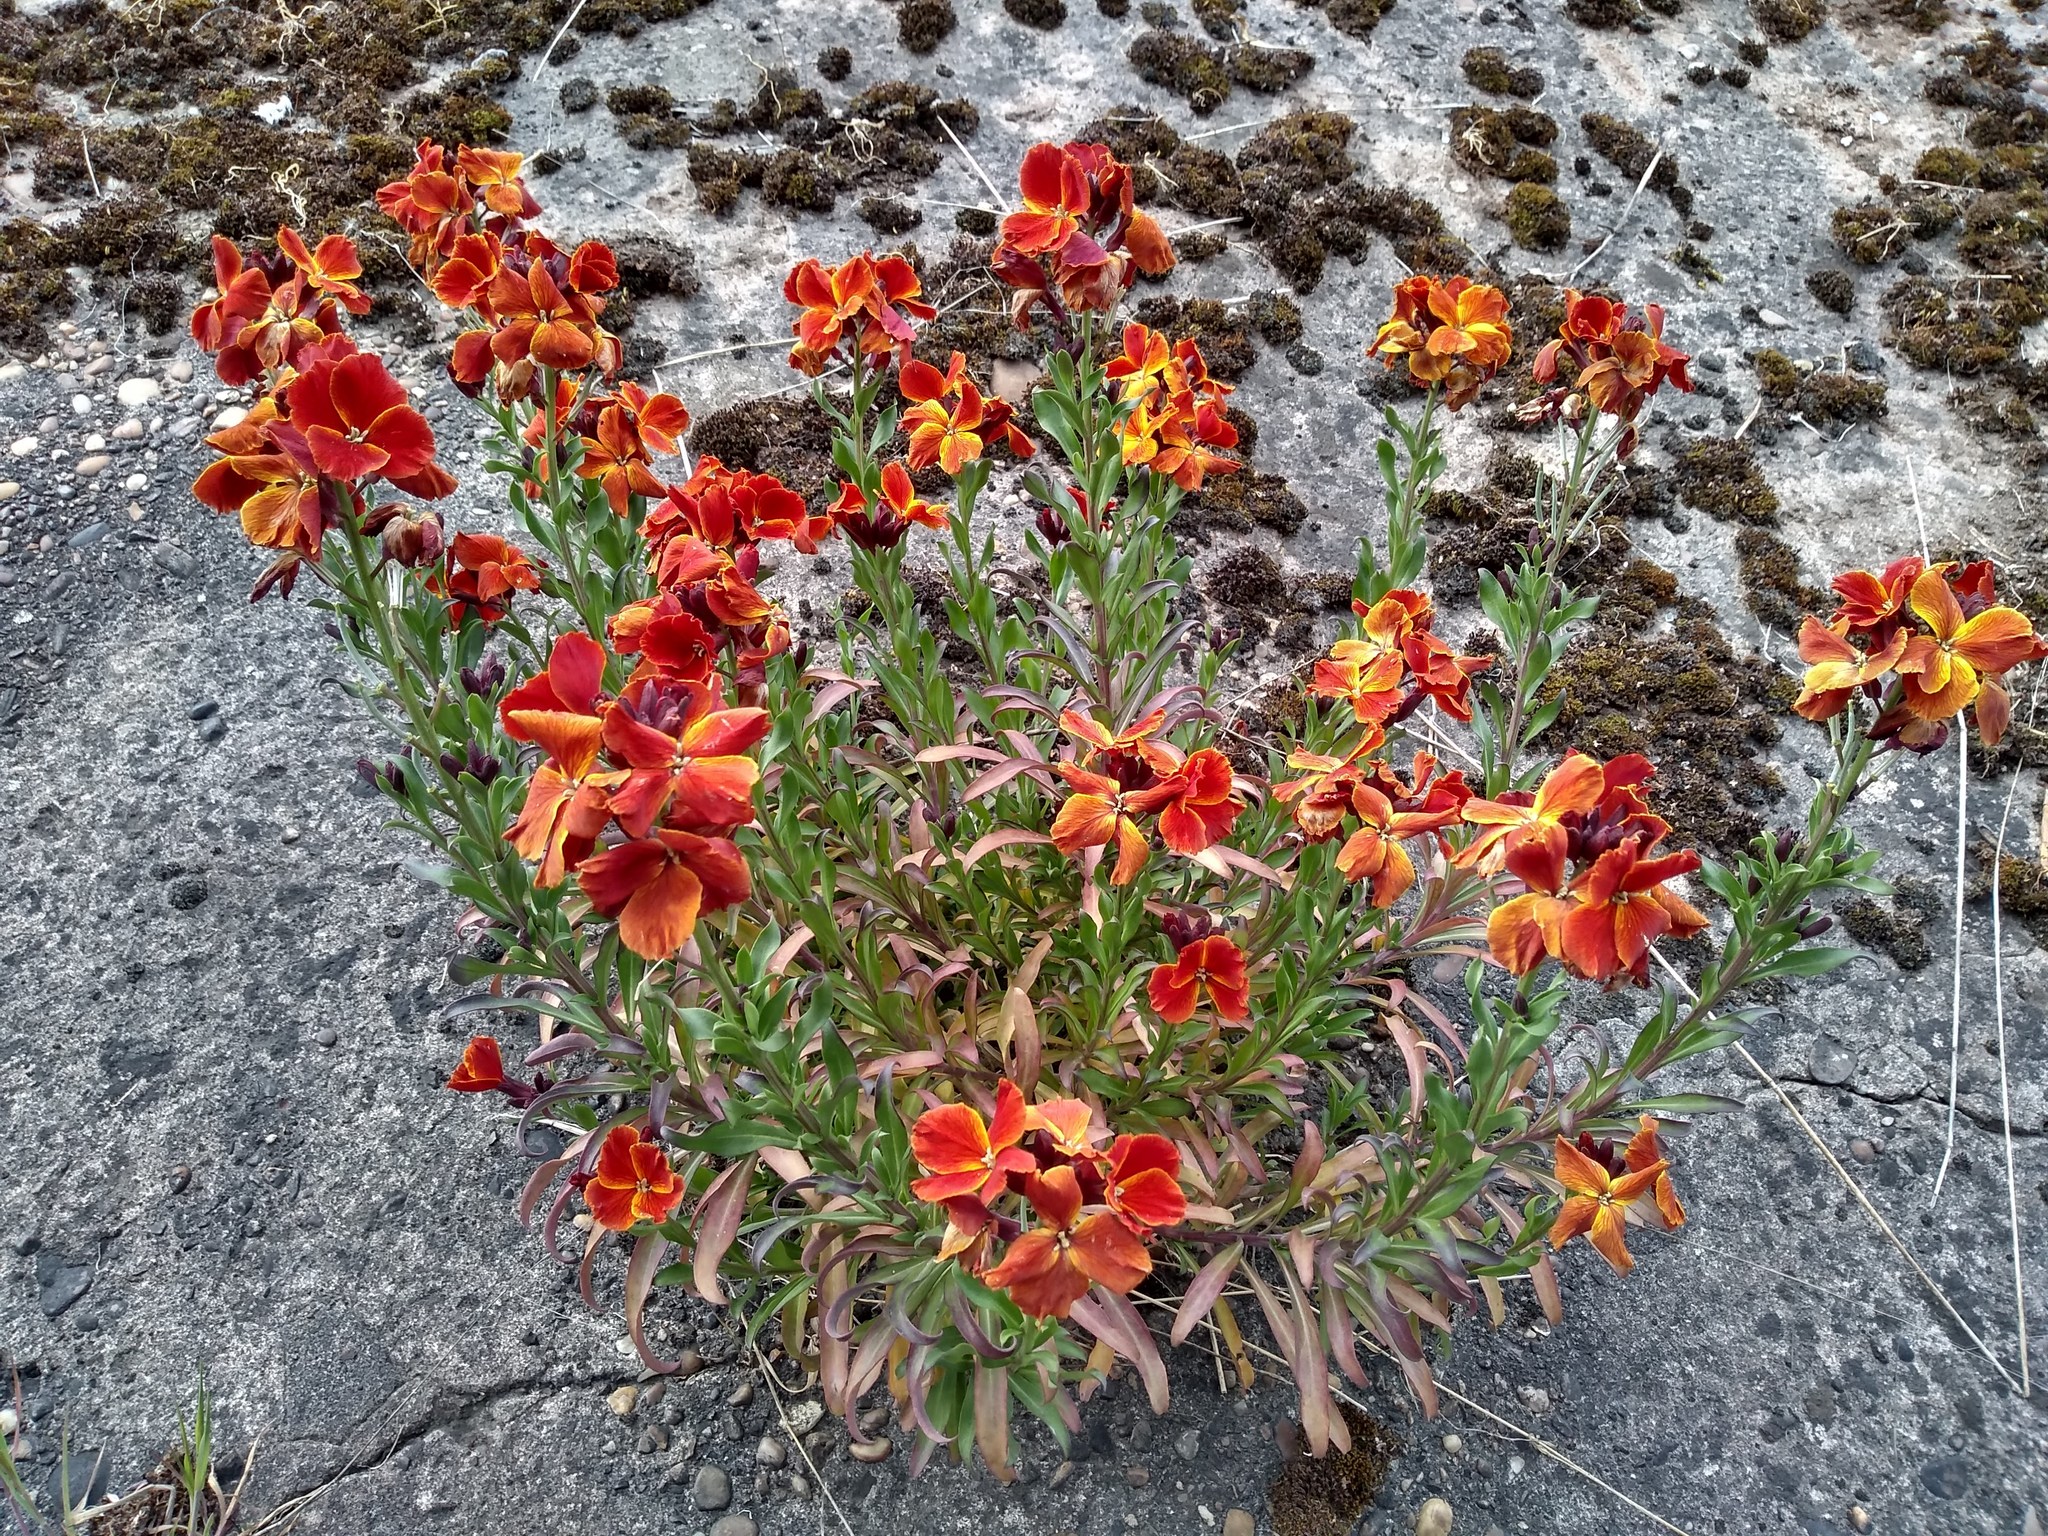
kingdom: Plantae
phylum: Tracheophyta
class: Magnoliopsida
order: Brassicales
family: Brassicaceae
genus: Erysimum
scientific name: Erysimum cheiri
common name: Wallflower
